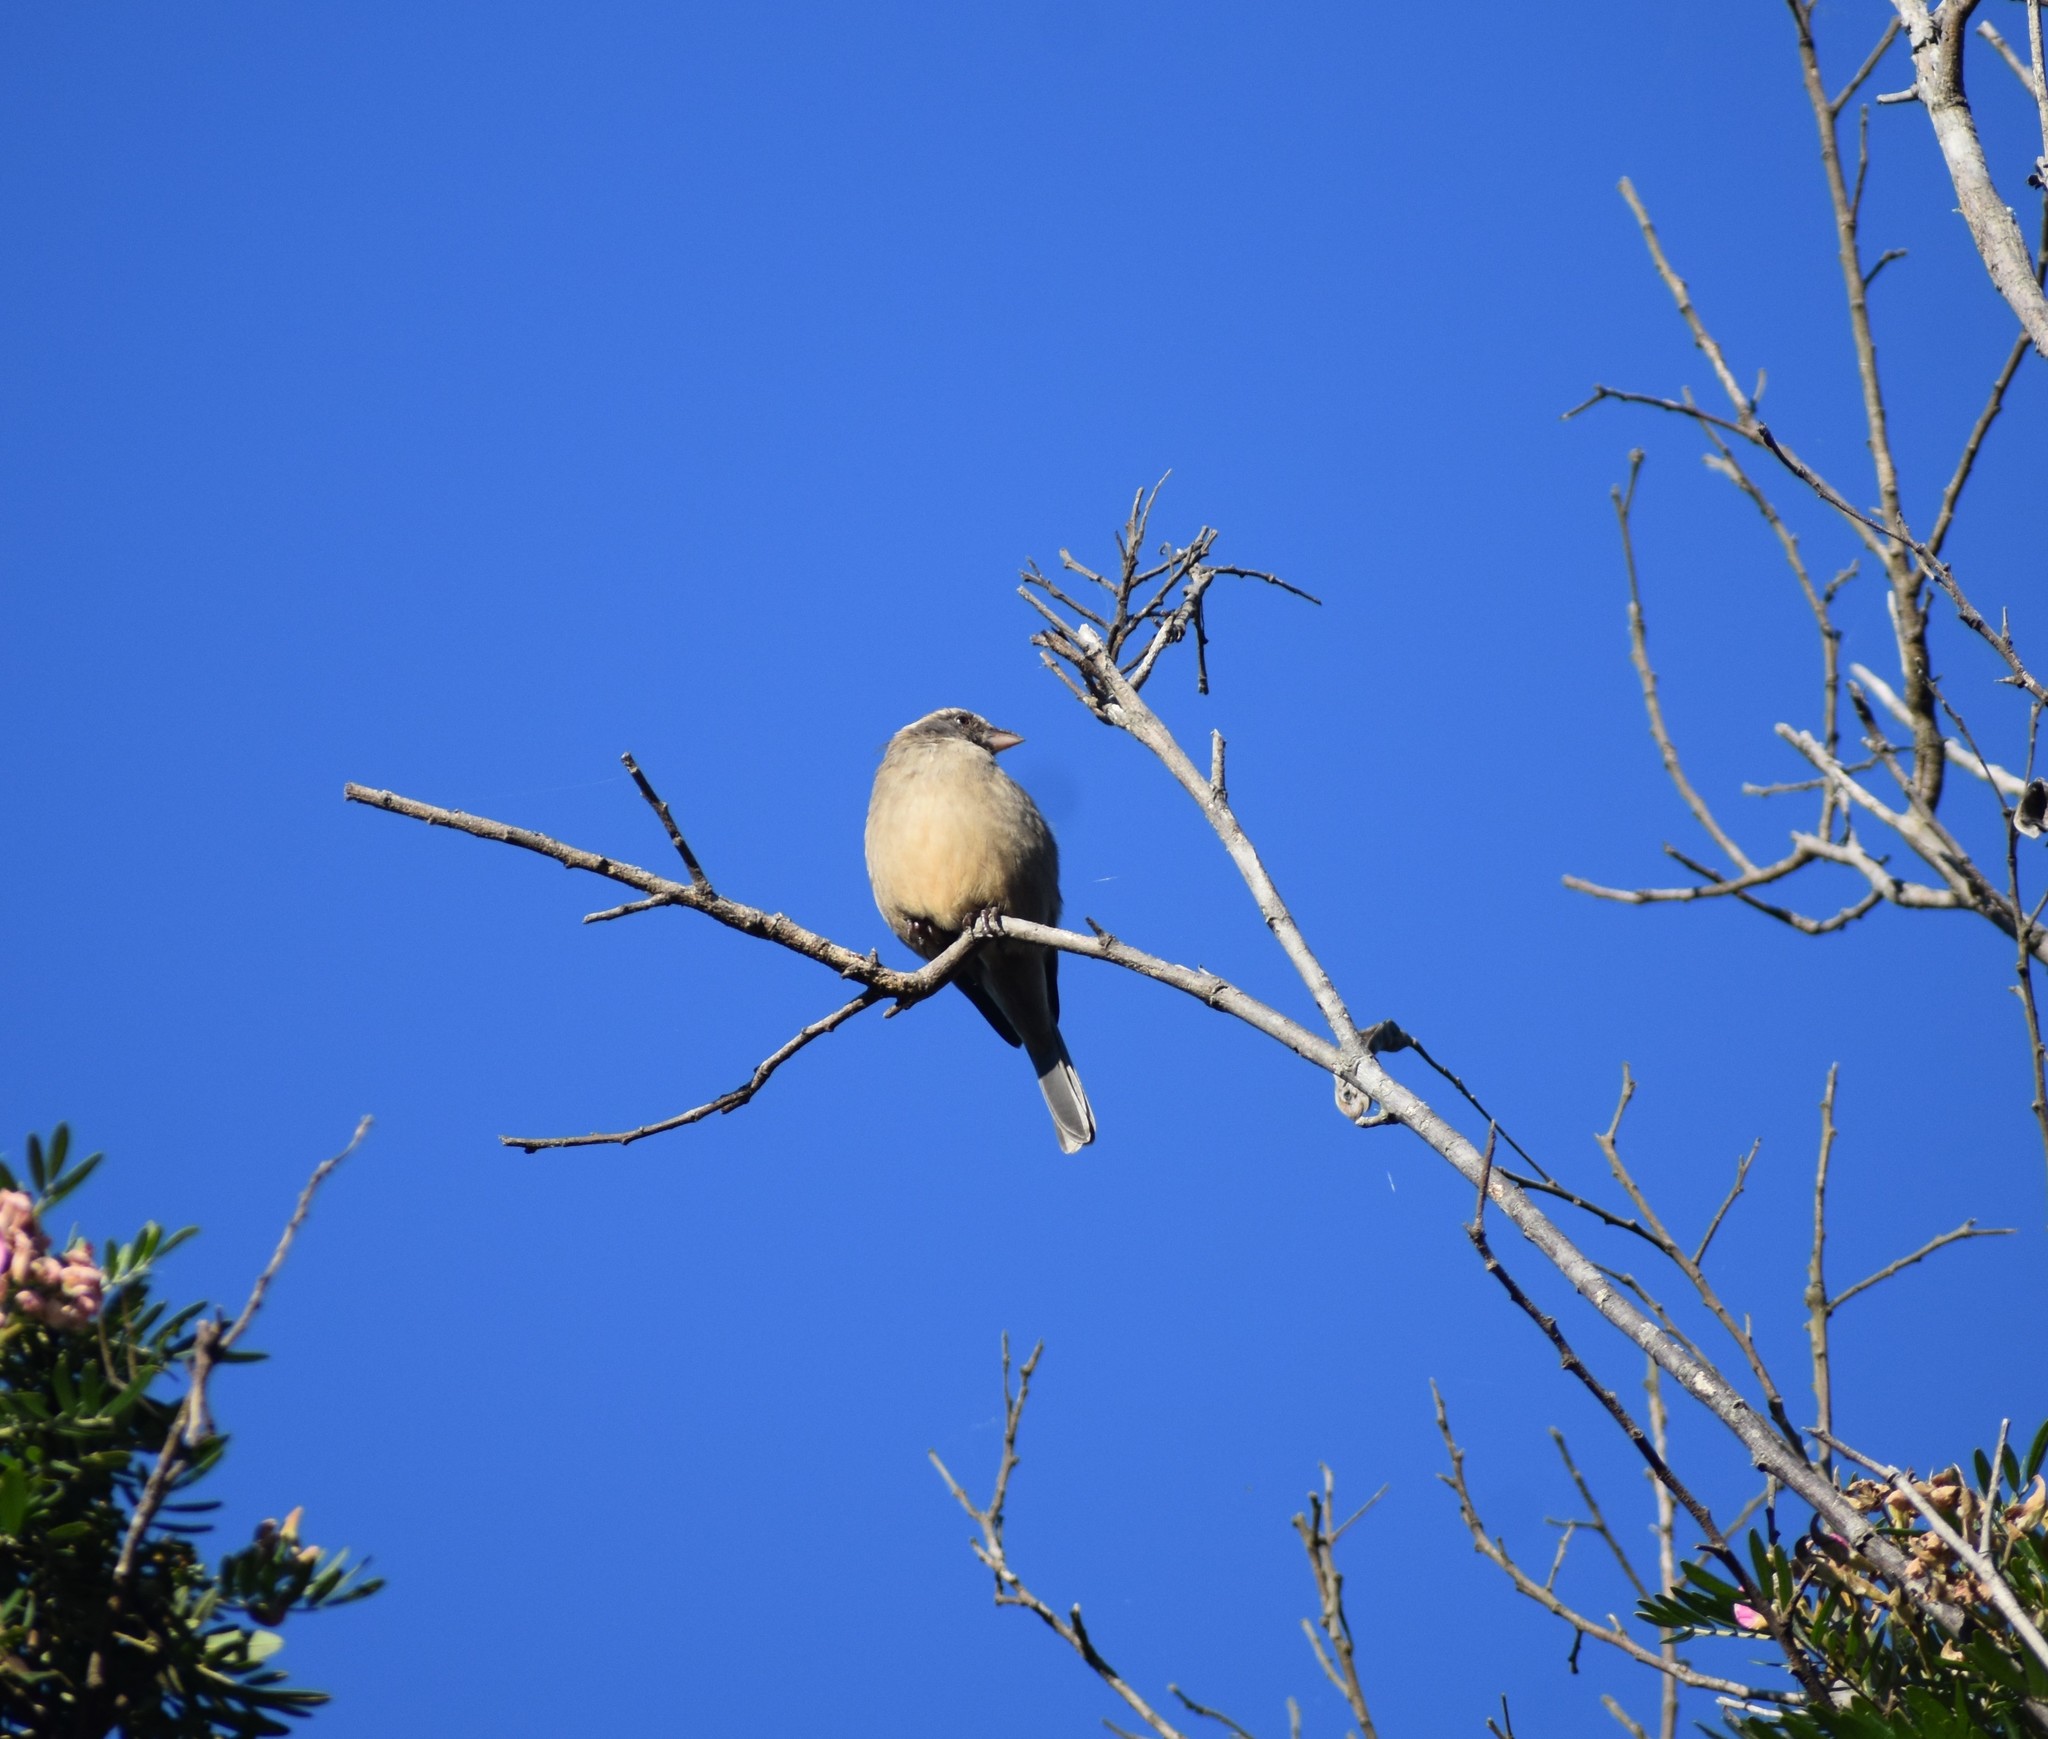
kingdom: Animalia
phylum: Chordata
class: Aves
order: Passeriformes
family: Fringillidae
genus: Crithagra
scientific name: Crithagra gularis
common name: Streaky-headed seedeater
